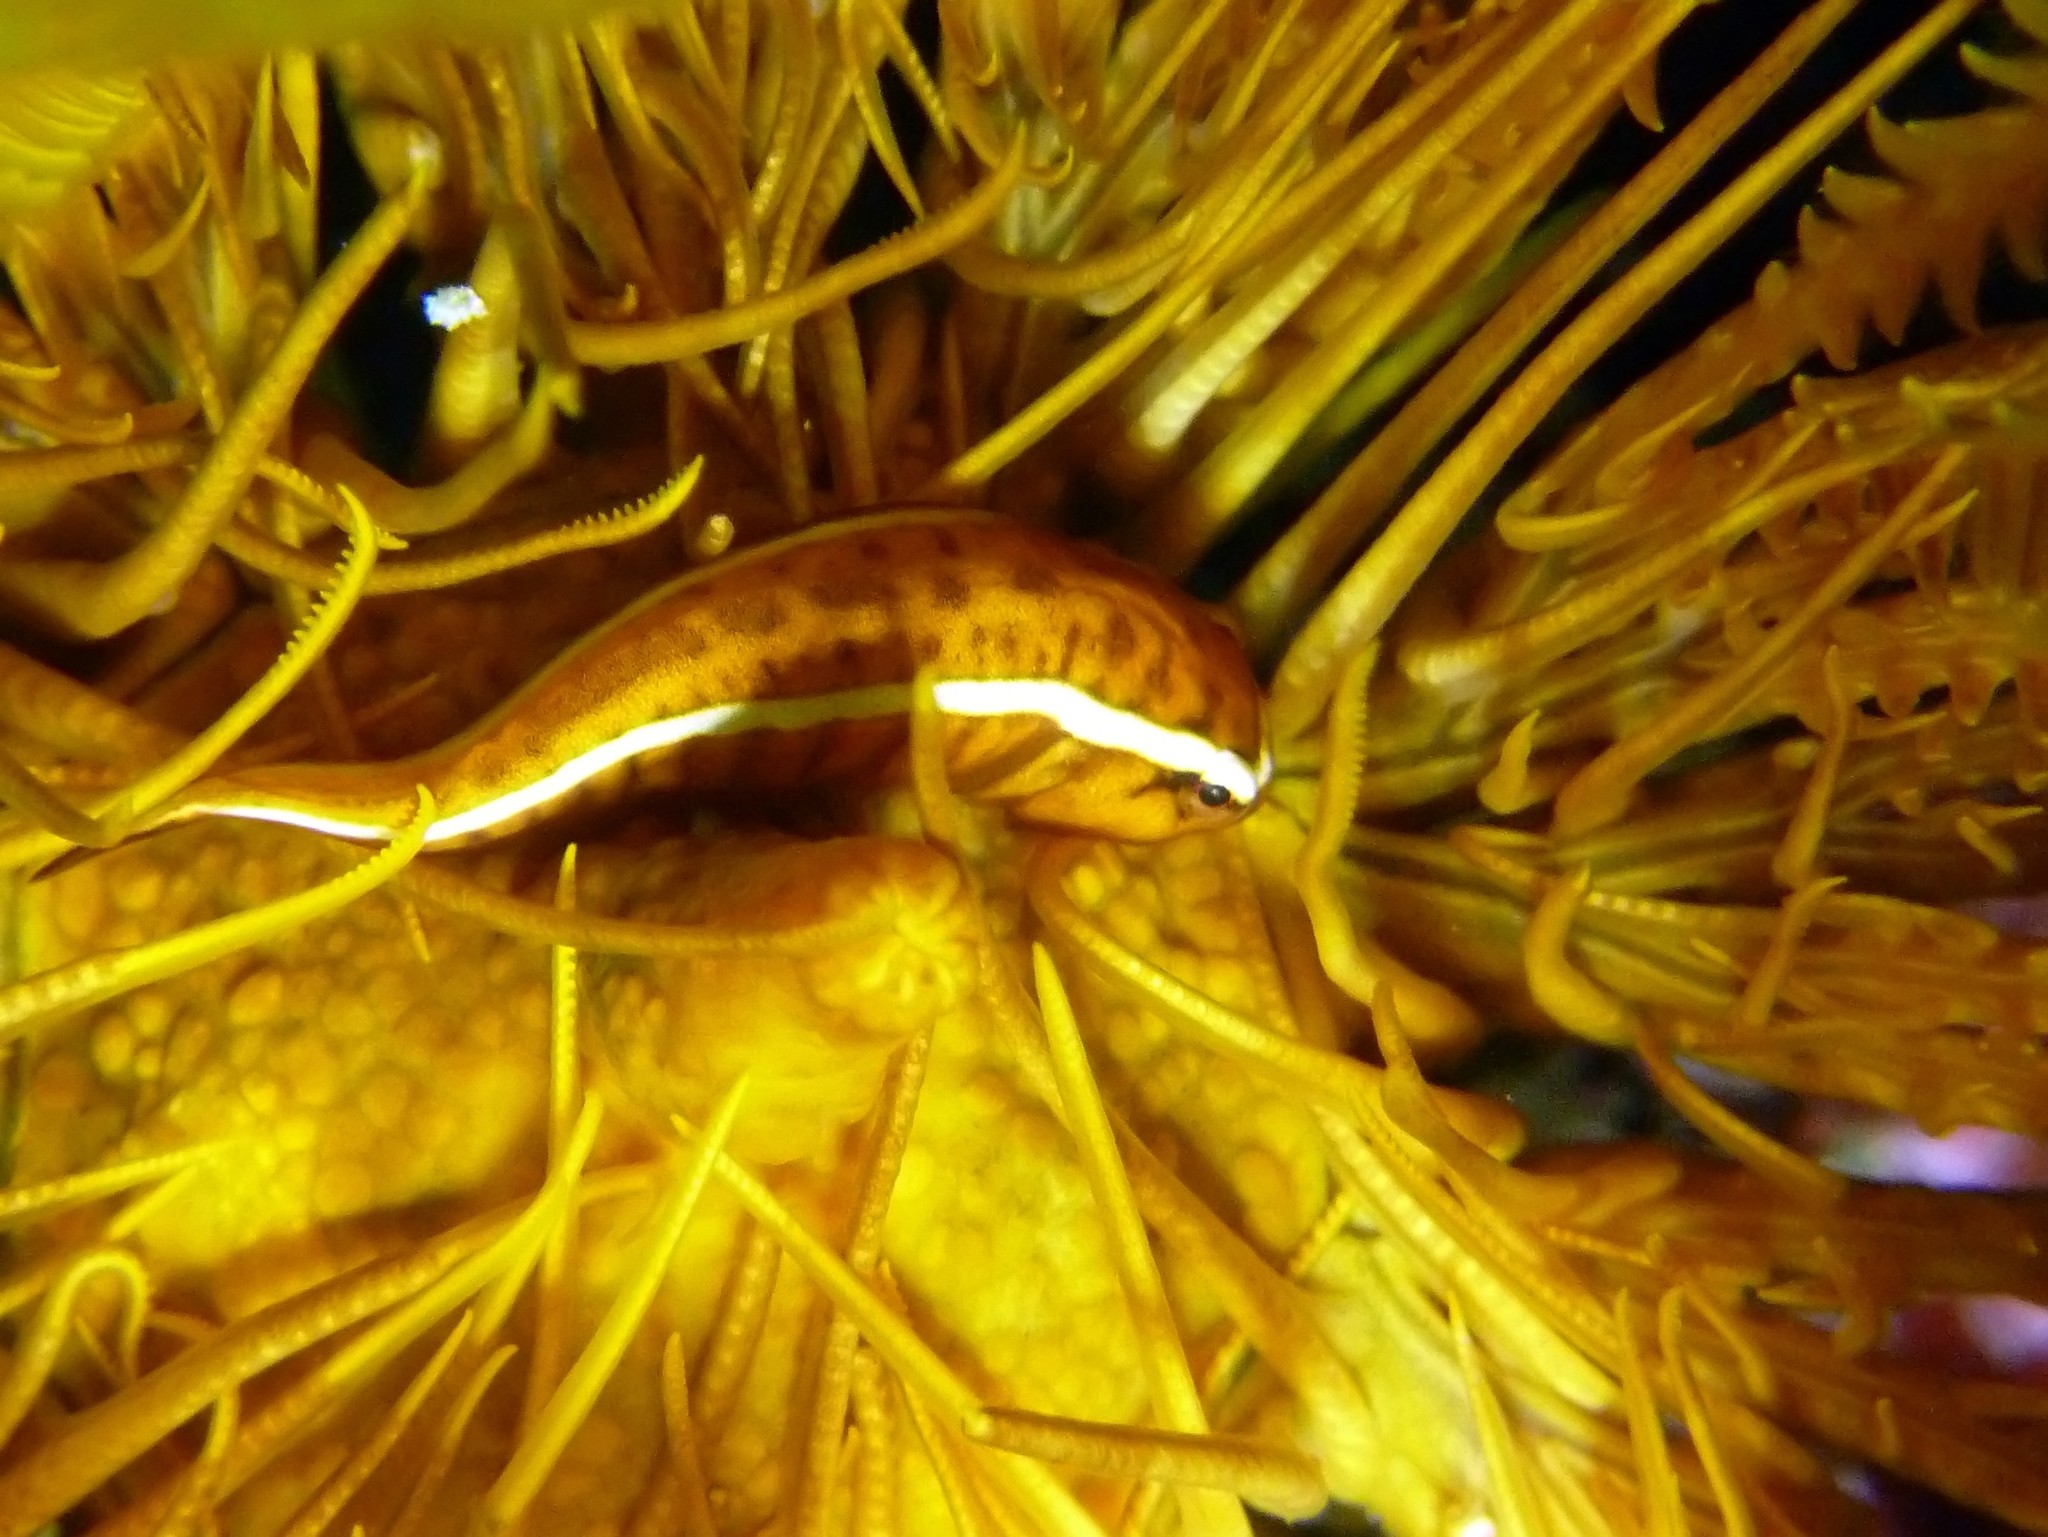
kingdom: Animalia
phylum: Chordata
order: Gobiesociformes
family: Gobiesocidae
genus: Discotrema
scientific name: Discotrema monogrammum
